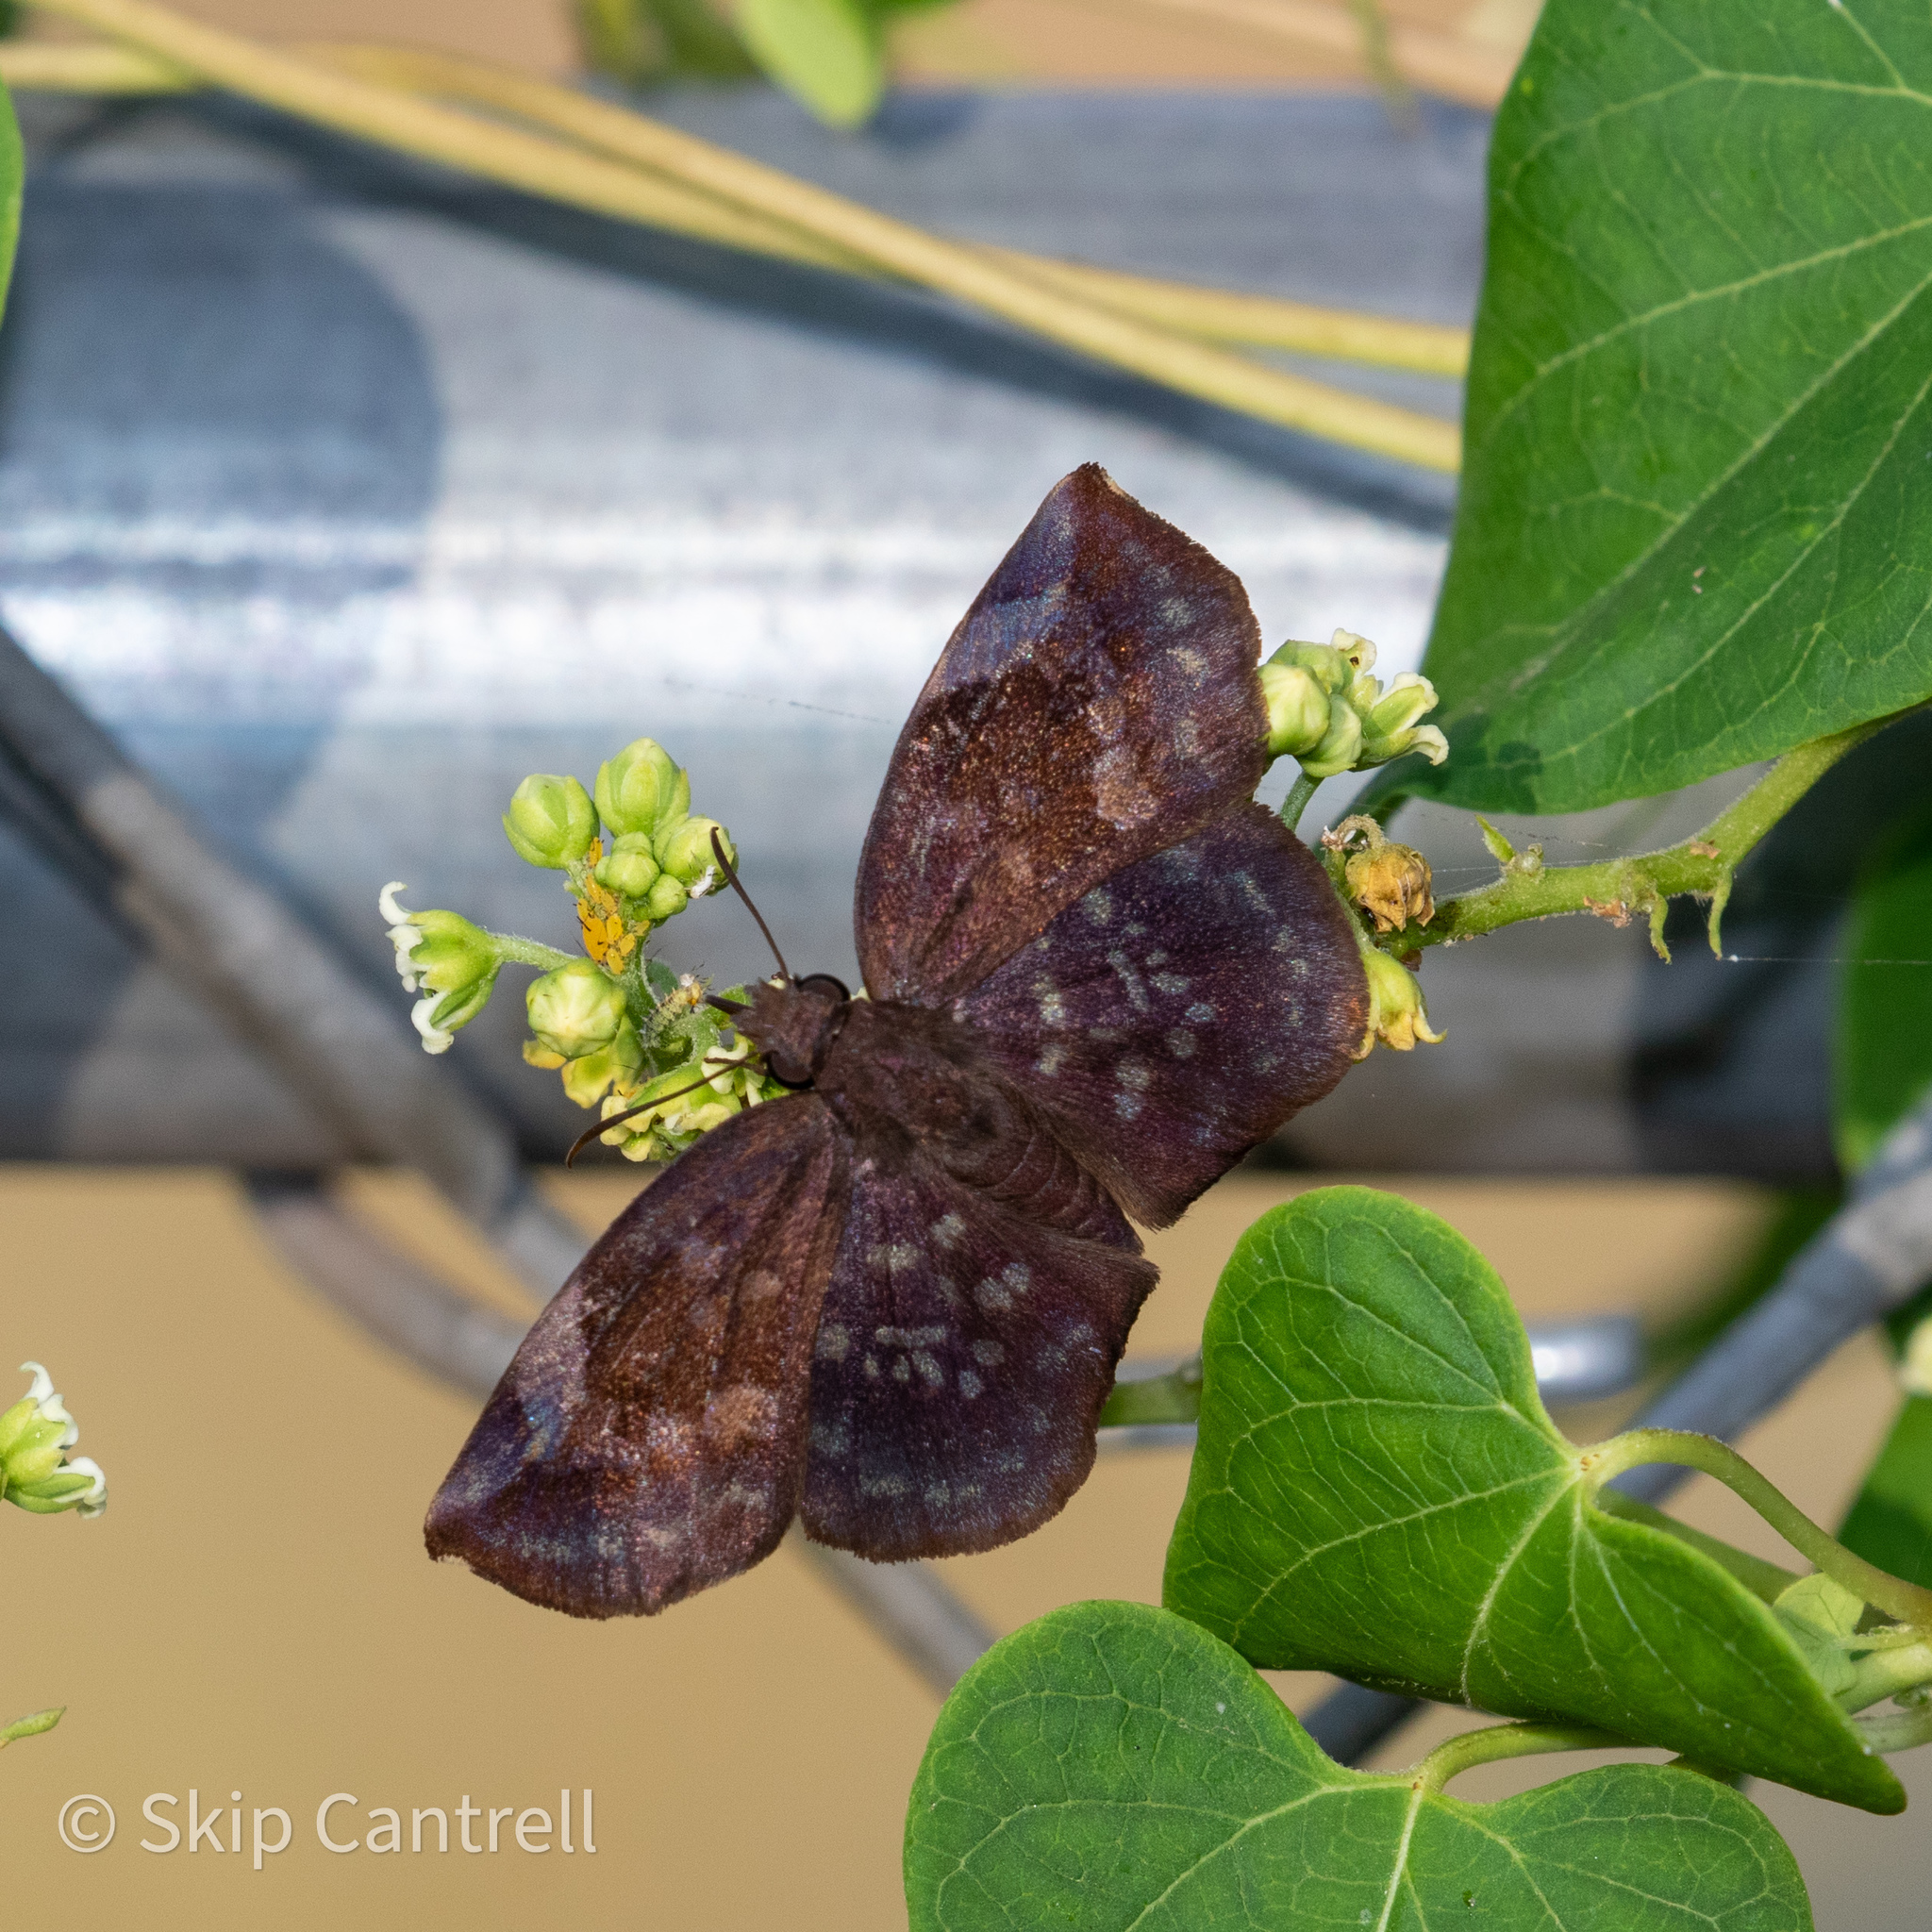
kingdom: Animalia
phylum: Arthropoda
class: Insecta
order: Lepidoptera
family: Hesperiidae
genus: Achlyodes
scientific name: Achlyodes thraso
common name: Sickle-winged skipper
